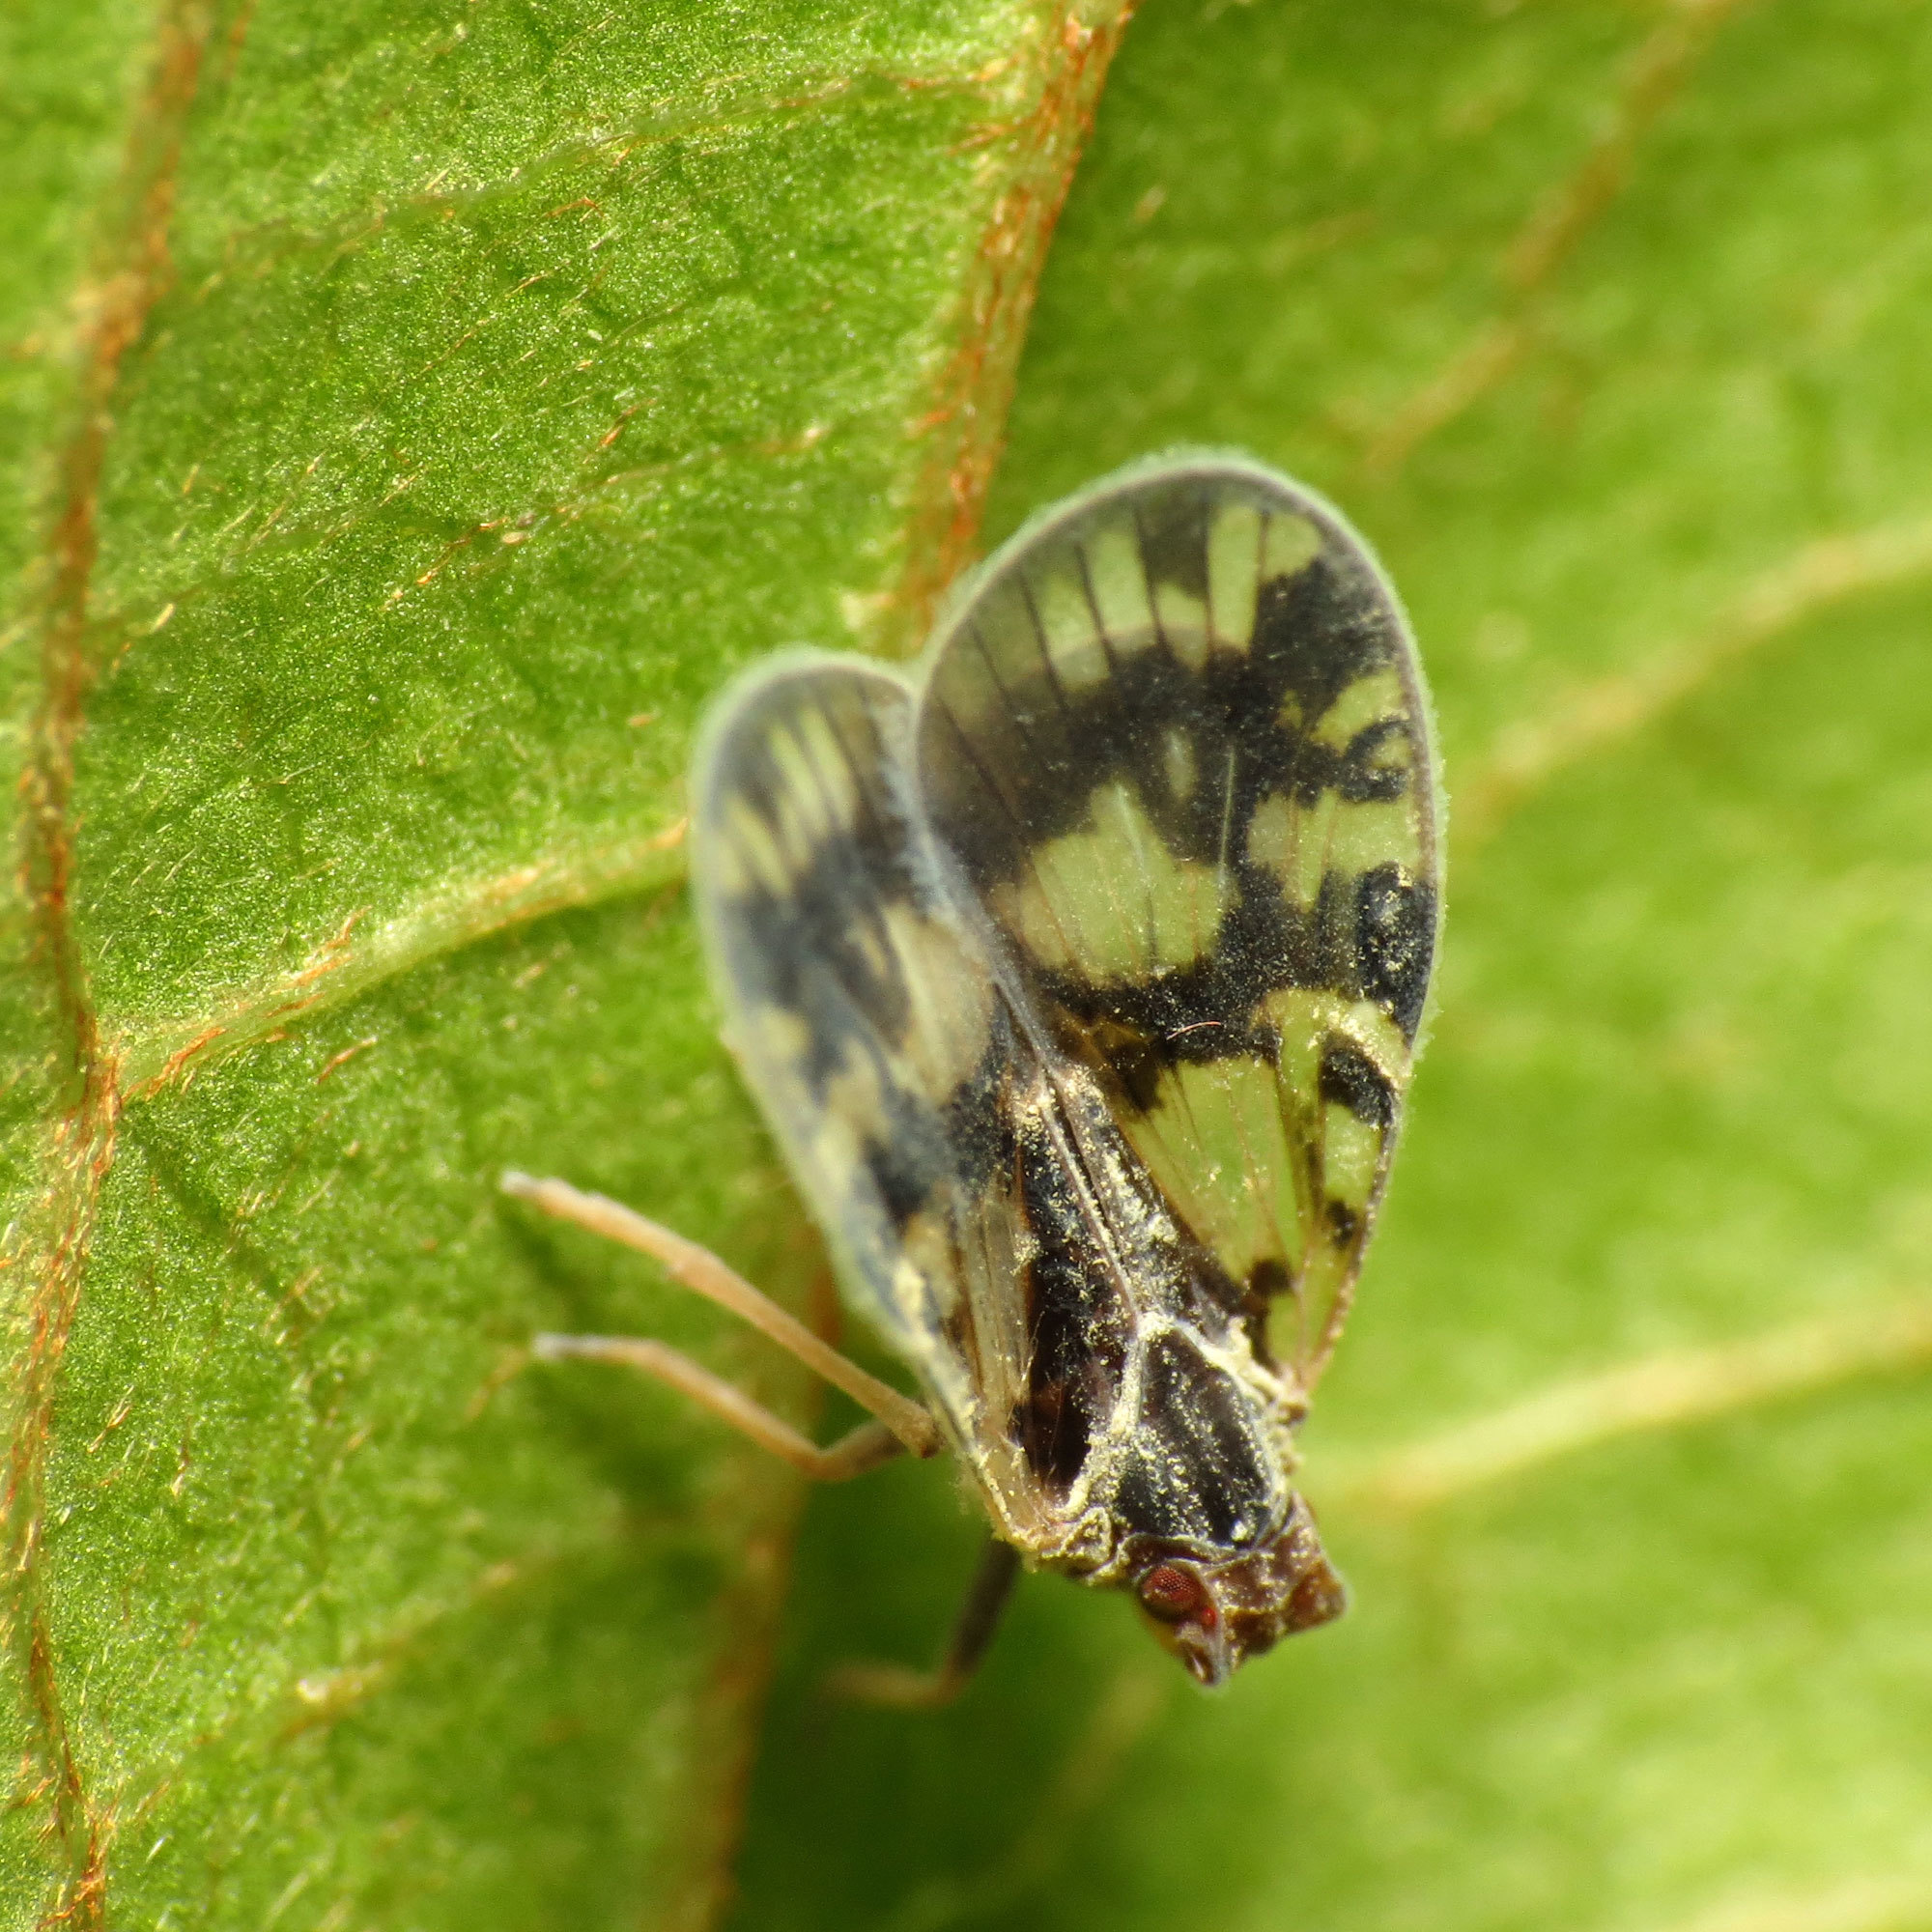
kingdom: Animalia
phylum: Arthropoda
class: Insecta
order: Hemiptera
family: Cixiidae
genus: Bothriocera
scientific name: Bothriocera cognita
